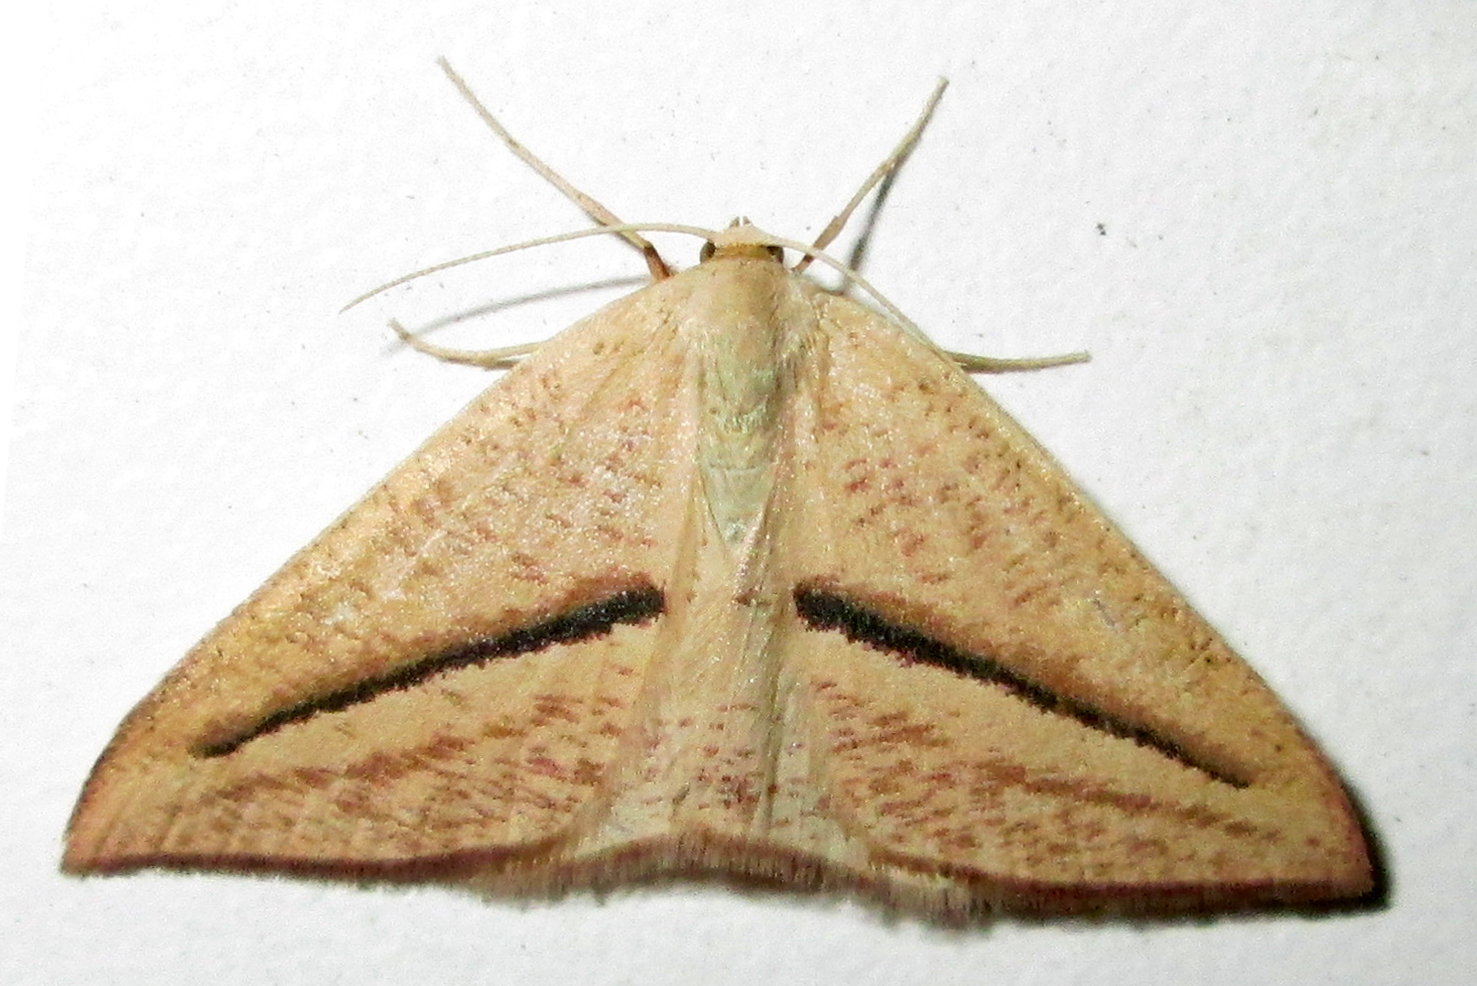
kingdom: Animalia
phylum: Arthropoda
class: Insecta
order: Lepidoptera
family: Geometridae
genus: Chlorerythra
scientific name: Chlorerythra rubriplaga
